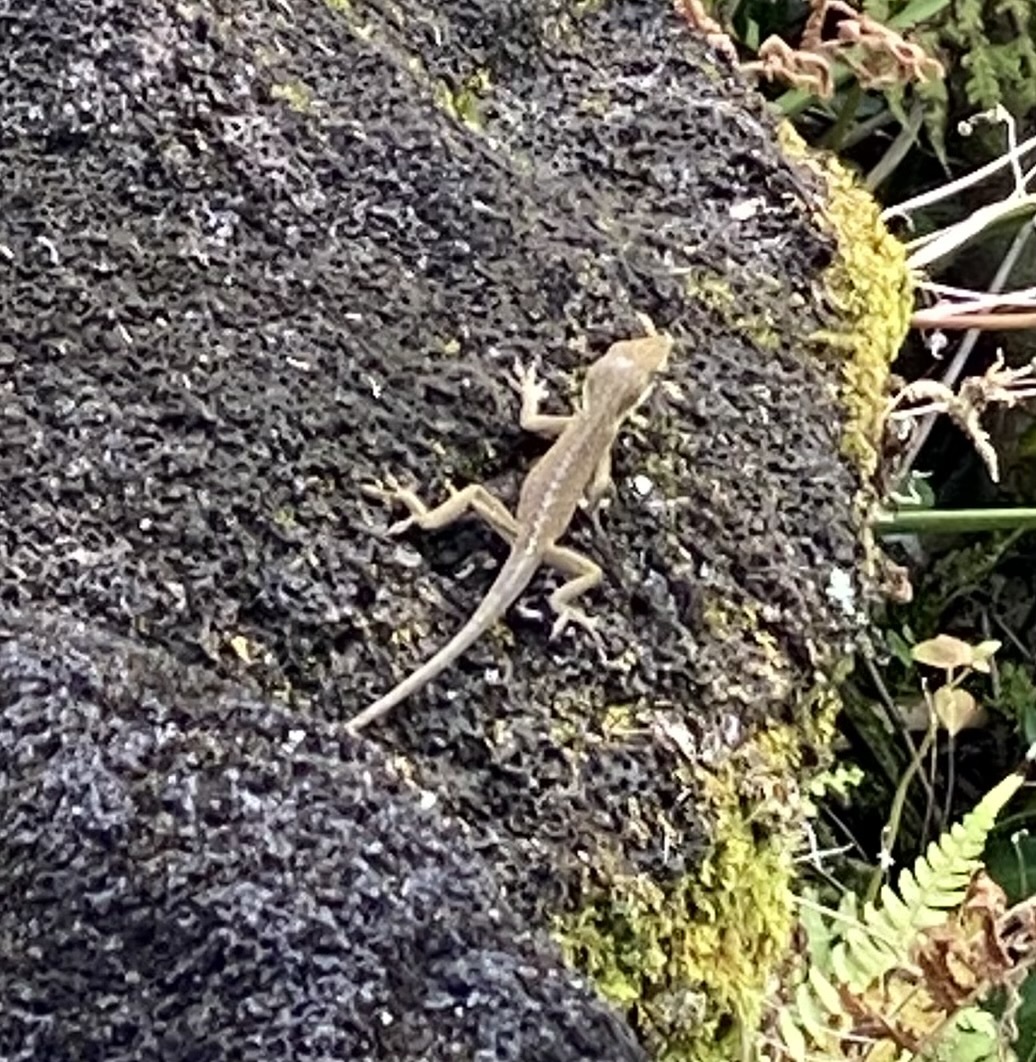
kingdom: Animalia
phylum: Chordata
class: Squamata
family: Dactyloidae
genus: Anolis
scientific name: Anolis carolinensis
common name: Green anole
